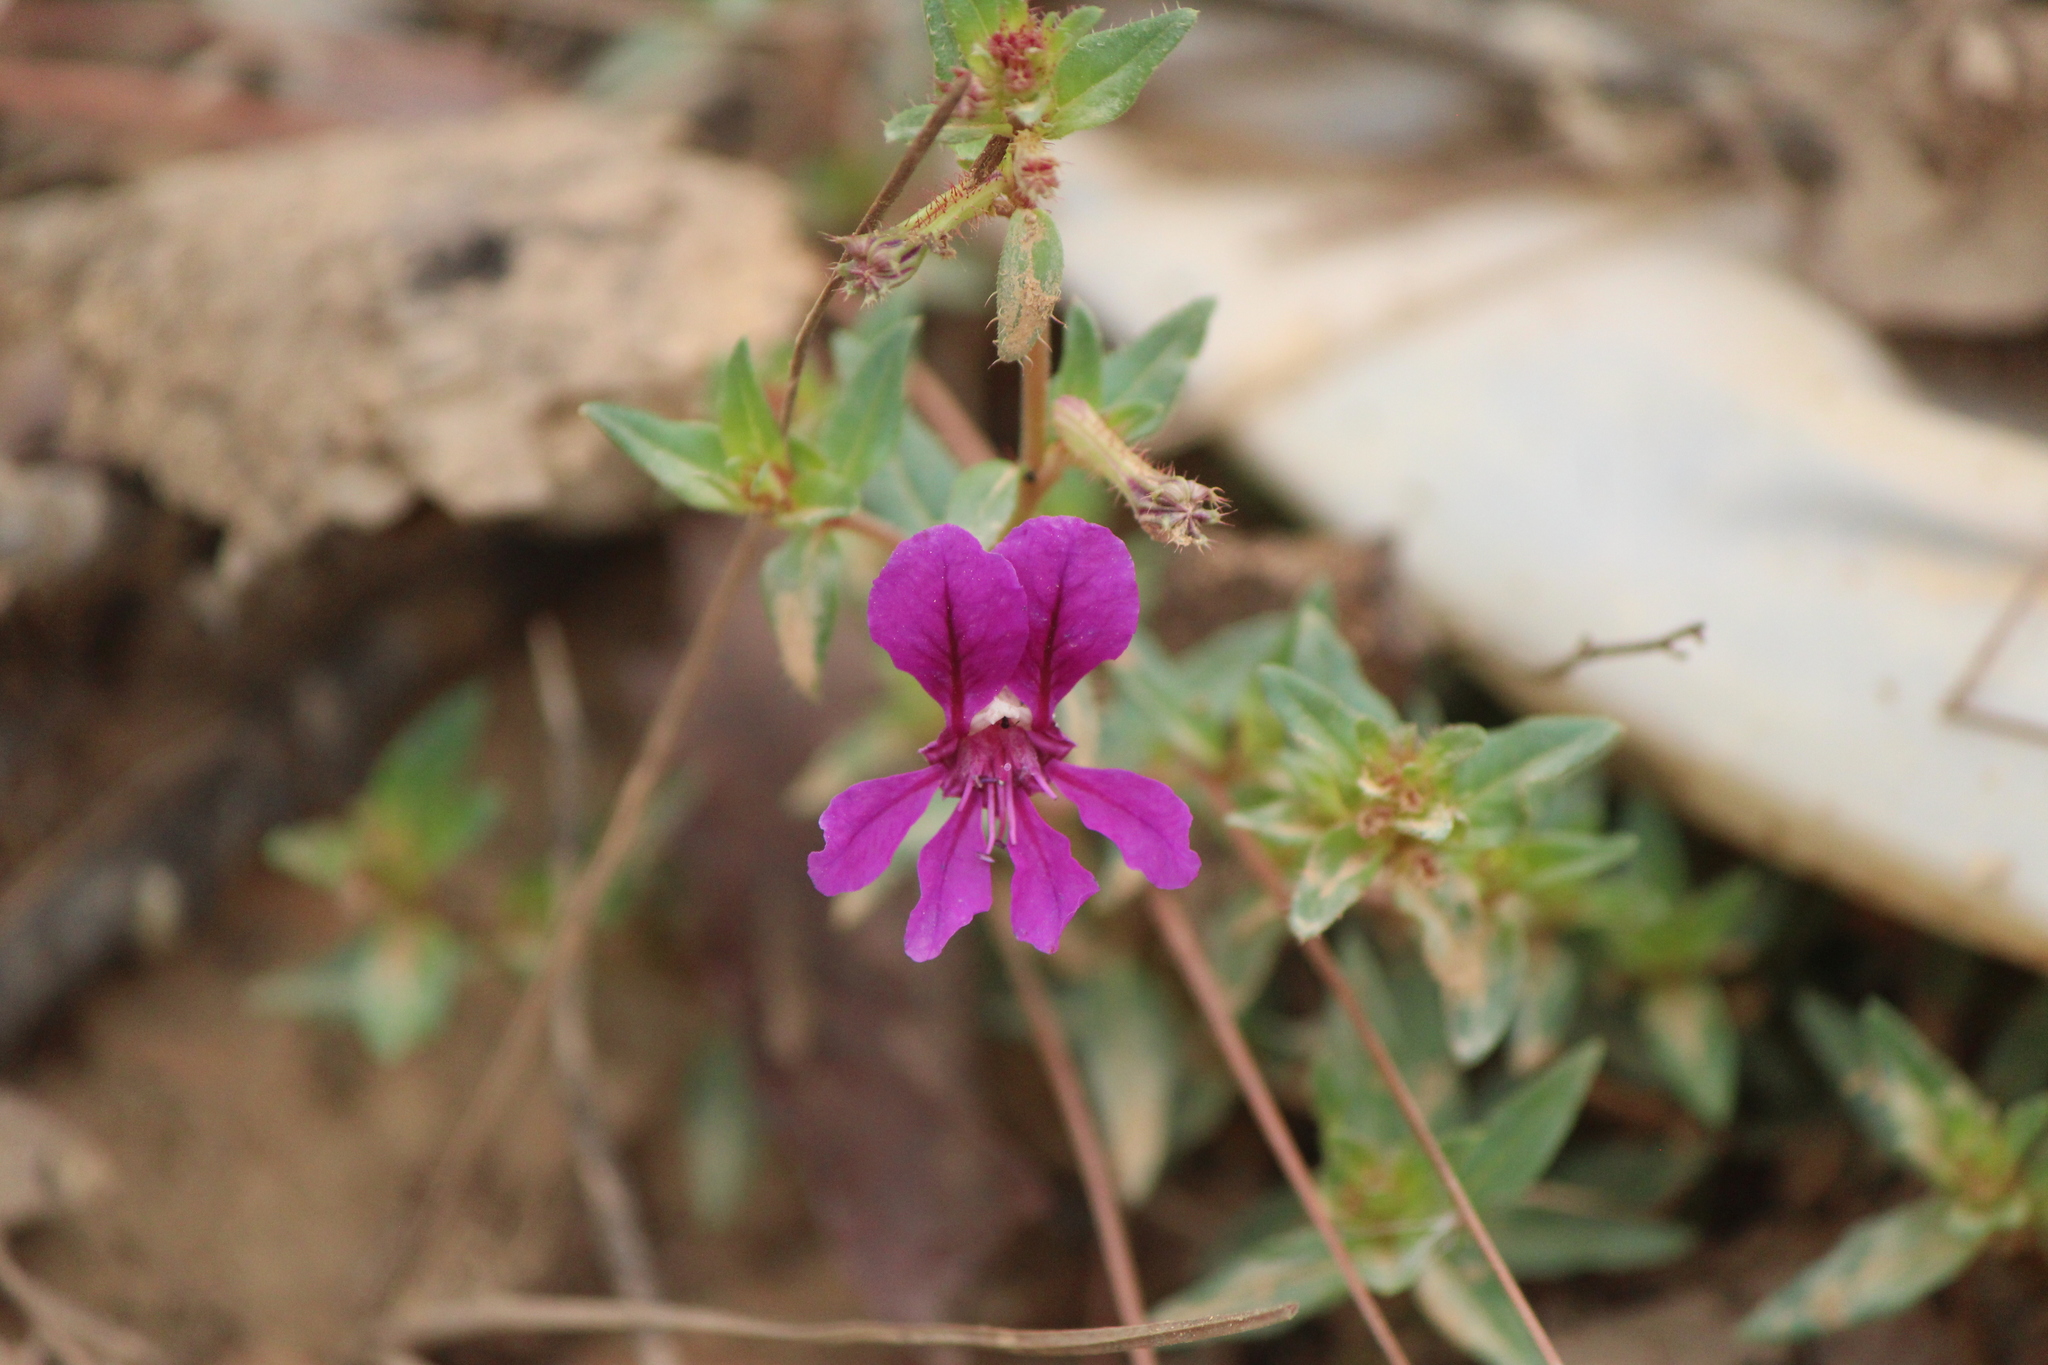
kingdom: Plantae
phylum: Tracheophyta
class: Magnoliopsida
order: Myrtales
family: Lythraceae
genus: Cuphea
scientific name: Cuphea aequipetala
